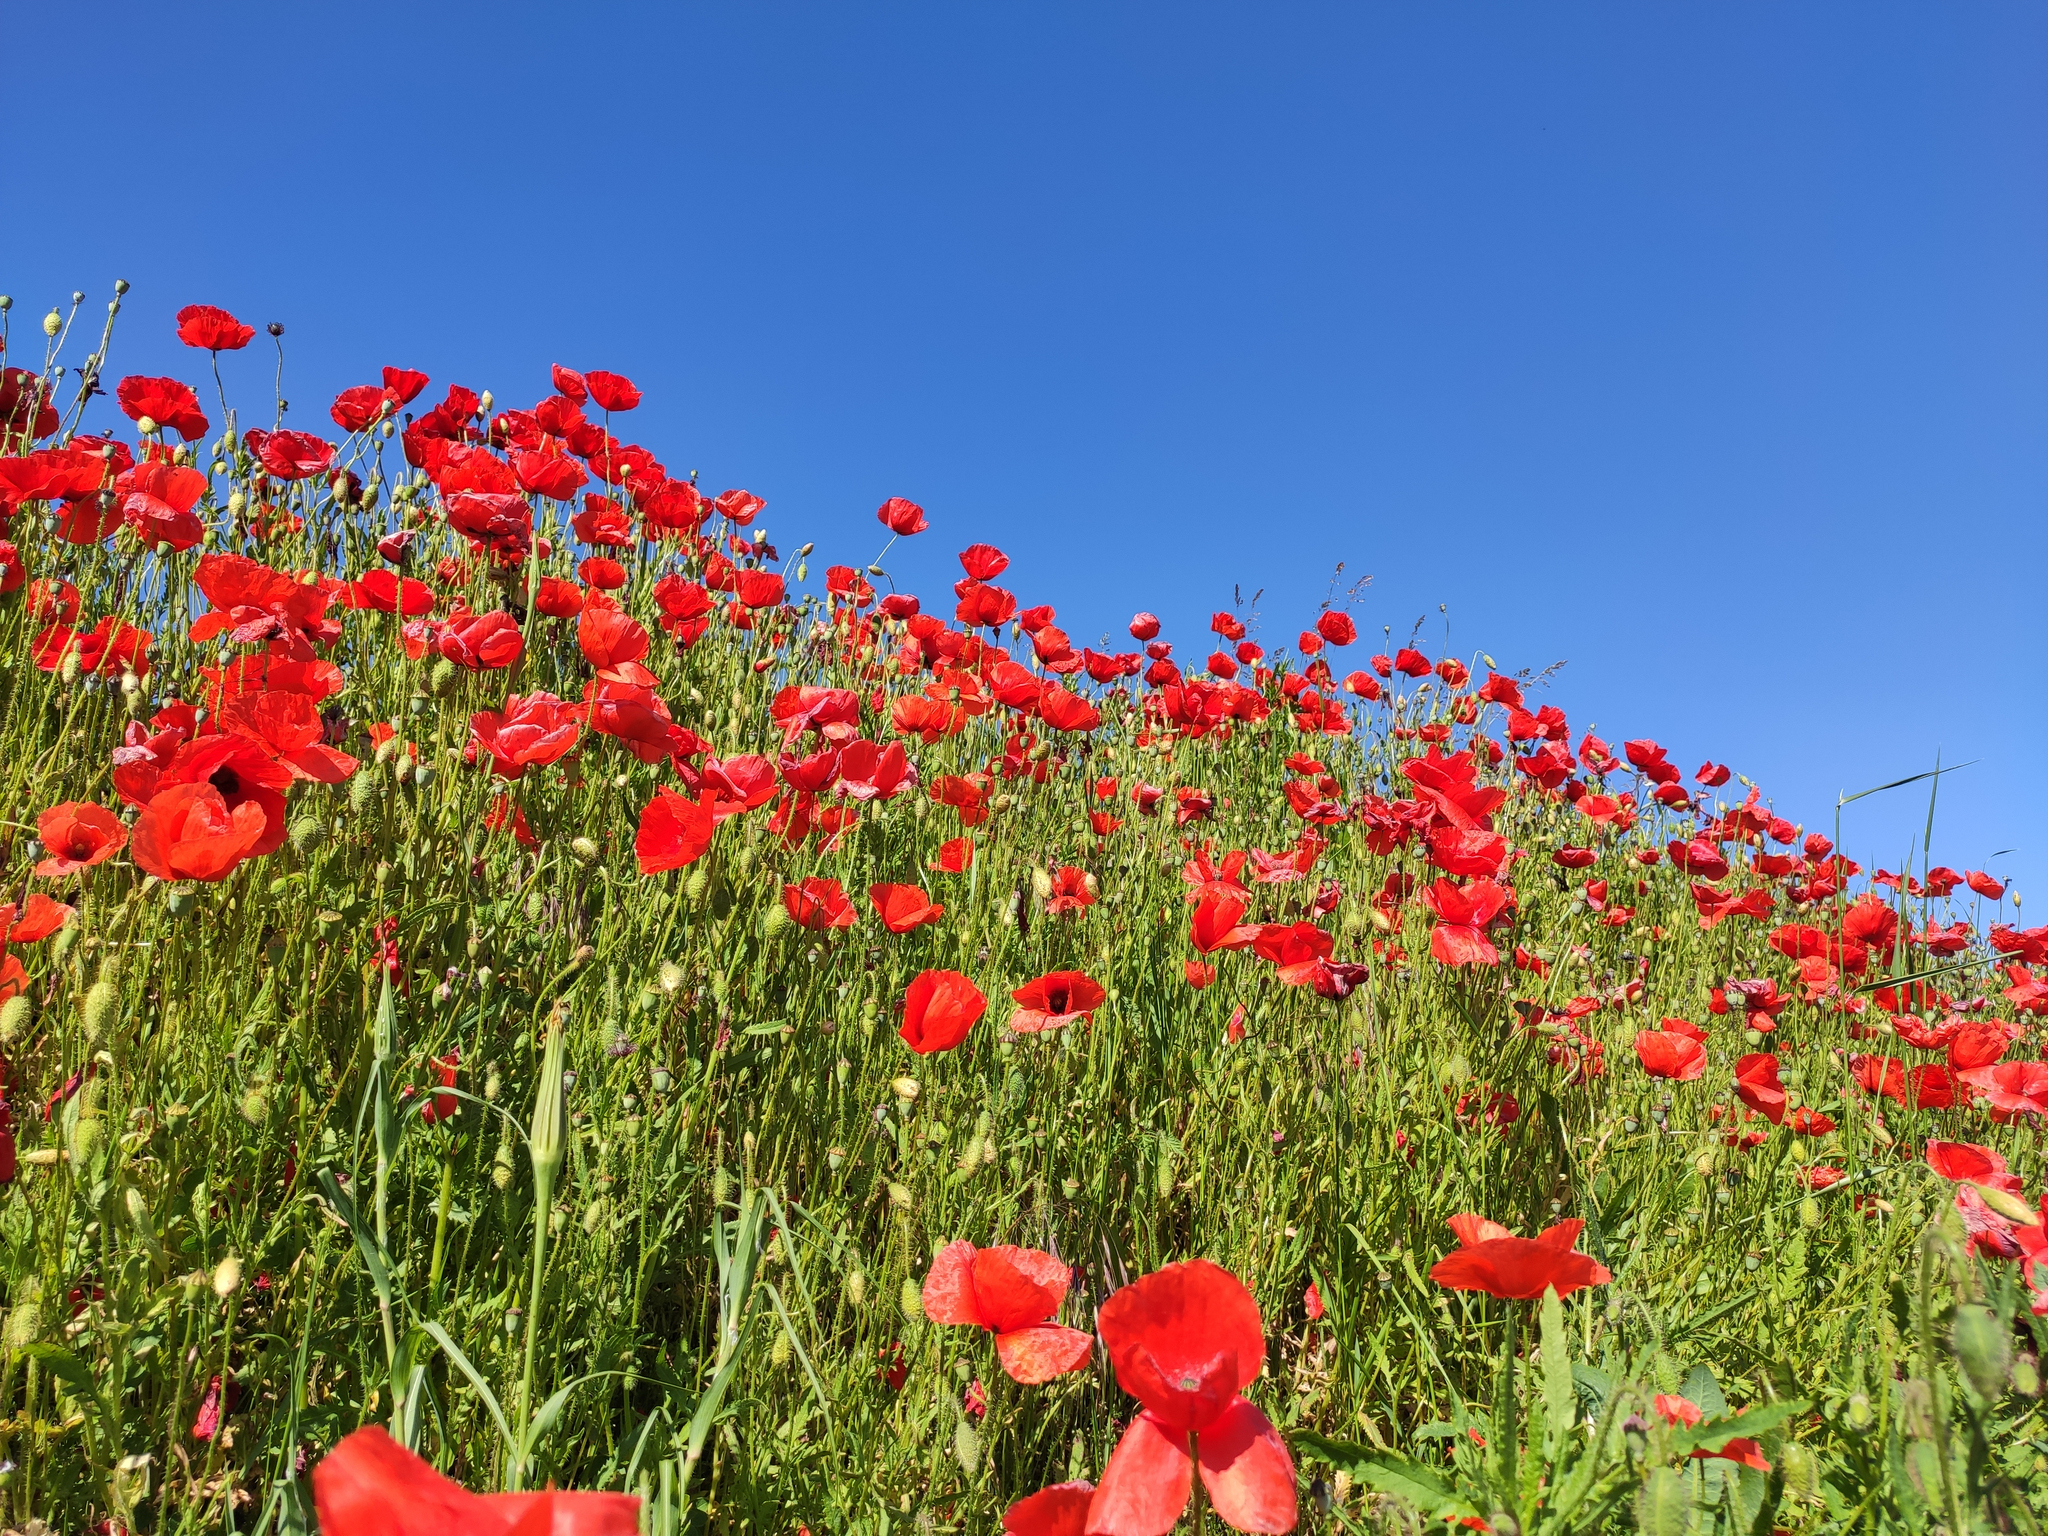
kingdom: Plantae
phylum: Tracheophyta
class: Magnoliopsida
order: Ranunculales
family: Papaveraceae
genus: Papaver
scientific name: Papaver rhoeas
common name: Corn poppy
